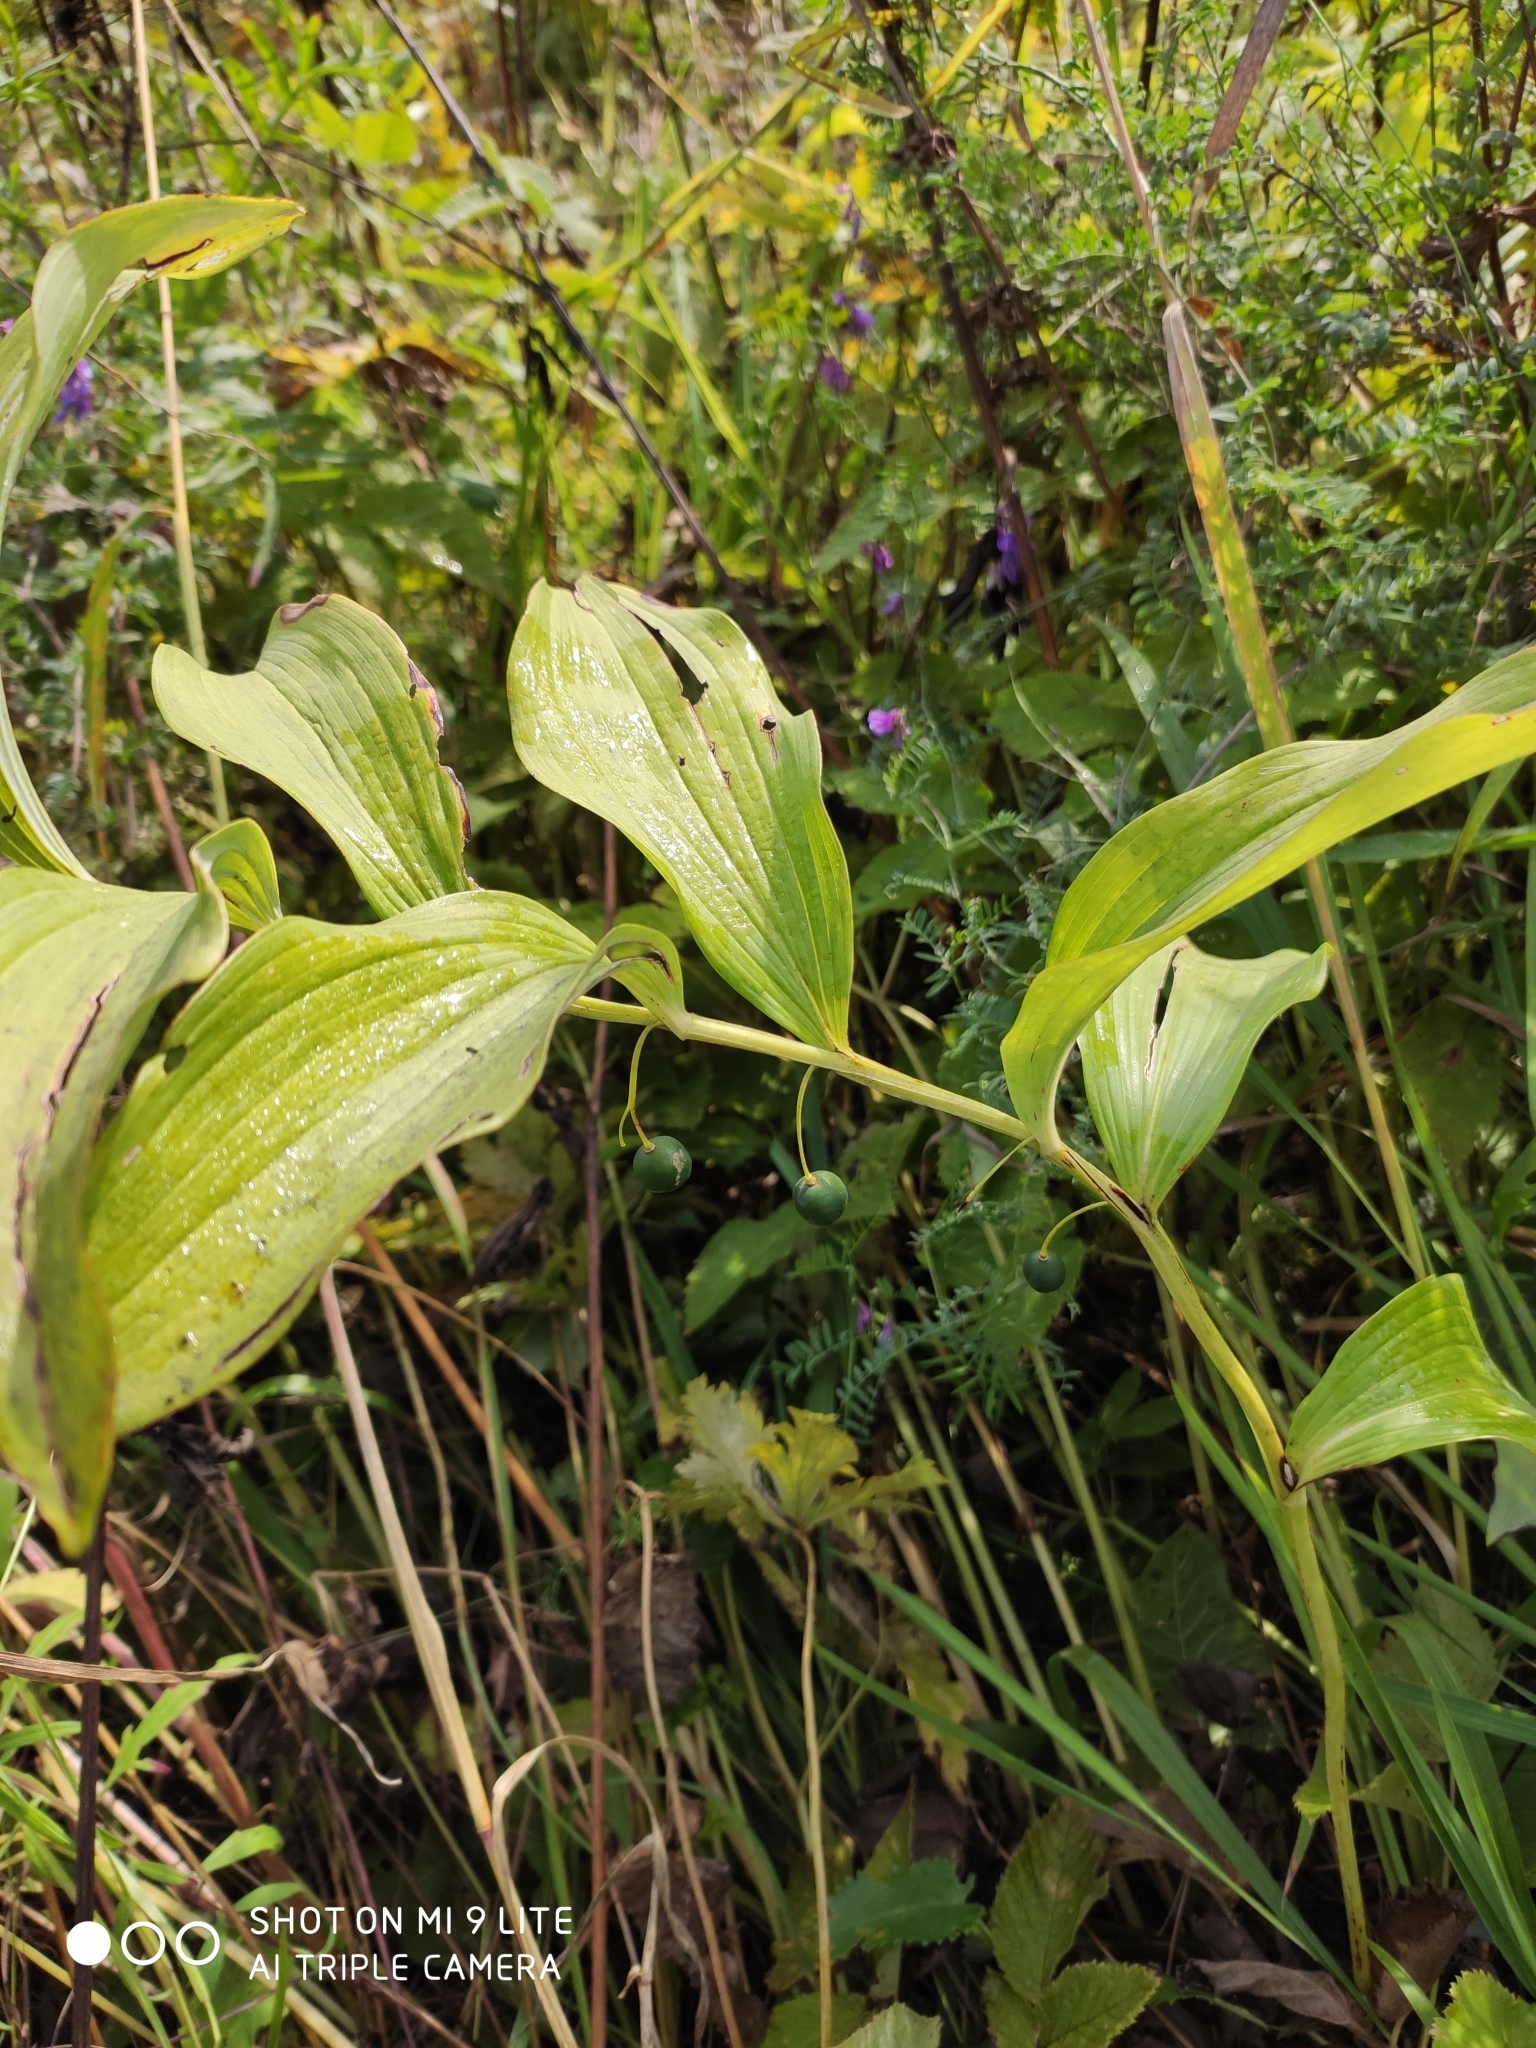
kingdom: Plantae
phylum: Tracheophyta
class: Liliopsida
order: Asparagales
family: Asparagaceae
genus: Polygonatum
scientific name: Polygonatum odoratum
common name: Angular solomon's-seal
